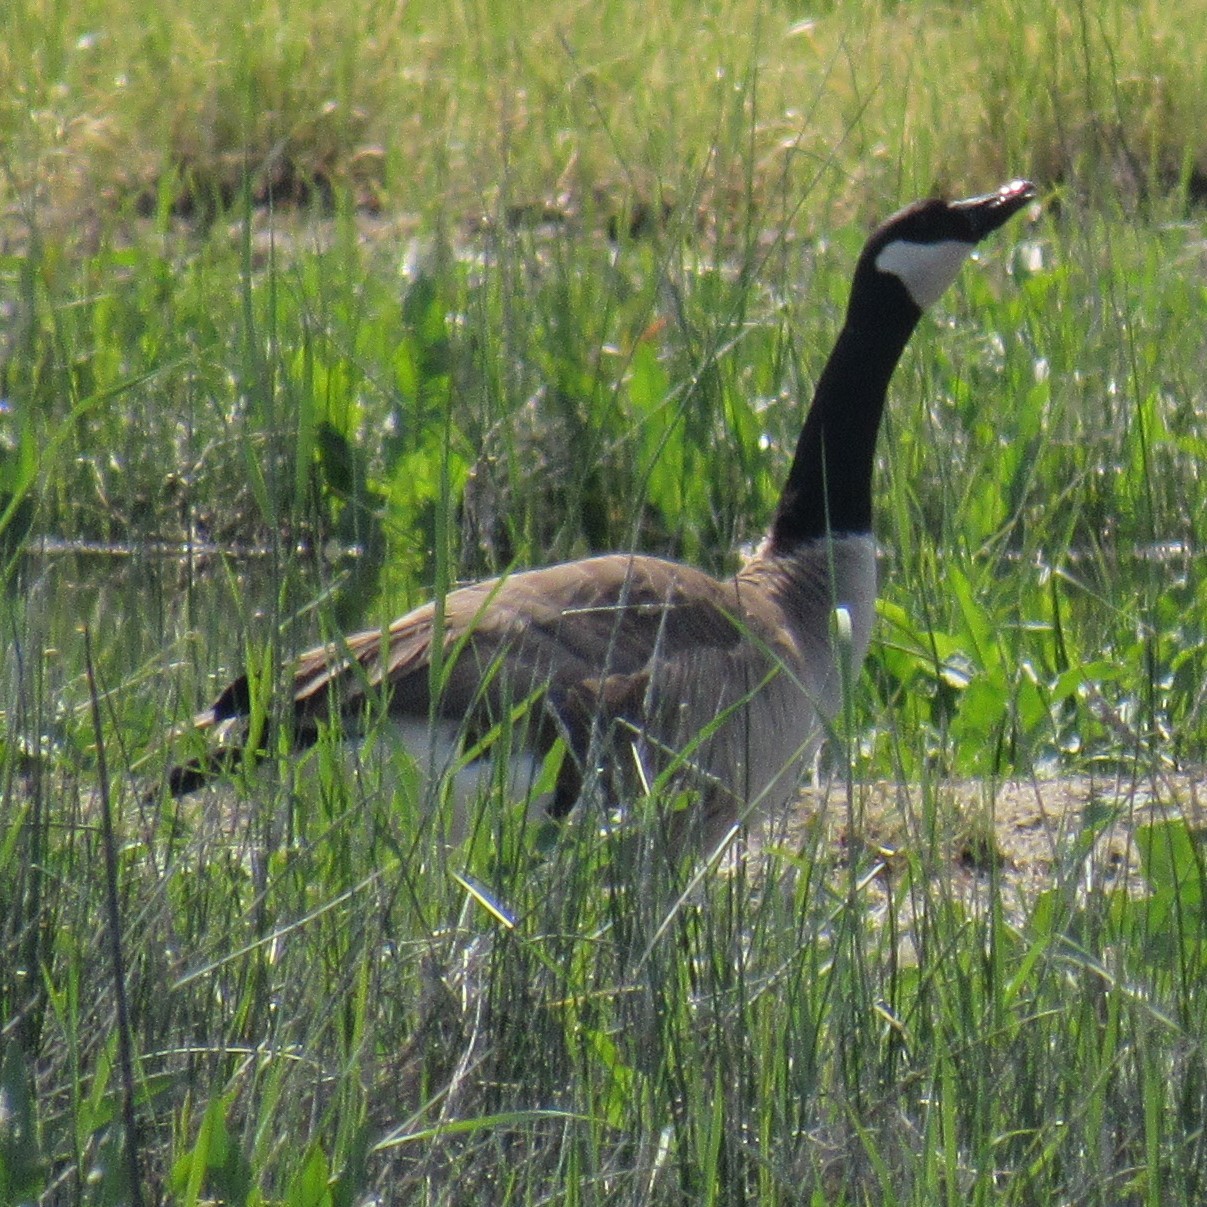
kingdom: Animalia
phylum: Chordata
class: Aves
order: Anseriformes
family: Anatidae
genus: Branta
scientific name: Branta canadensis
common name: Canada goose
